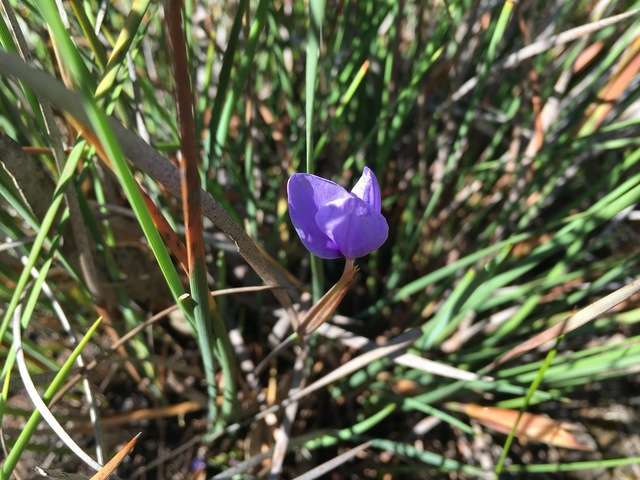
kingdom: Plantae
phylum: Tracheophyta
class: Liliopsida
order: Asparagales
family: Iridaceae
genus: Patersonia
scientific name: Patersonia fragilis
